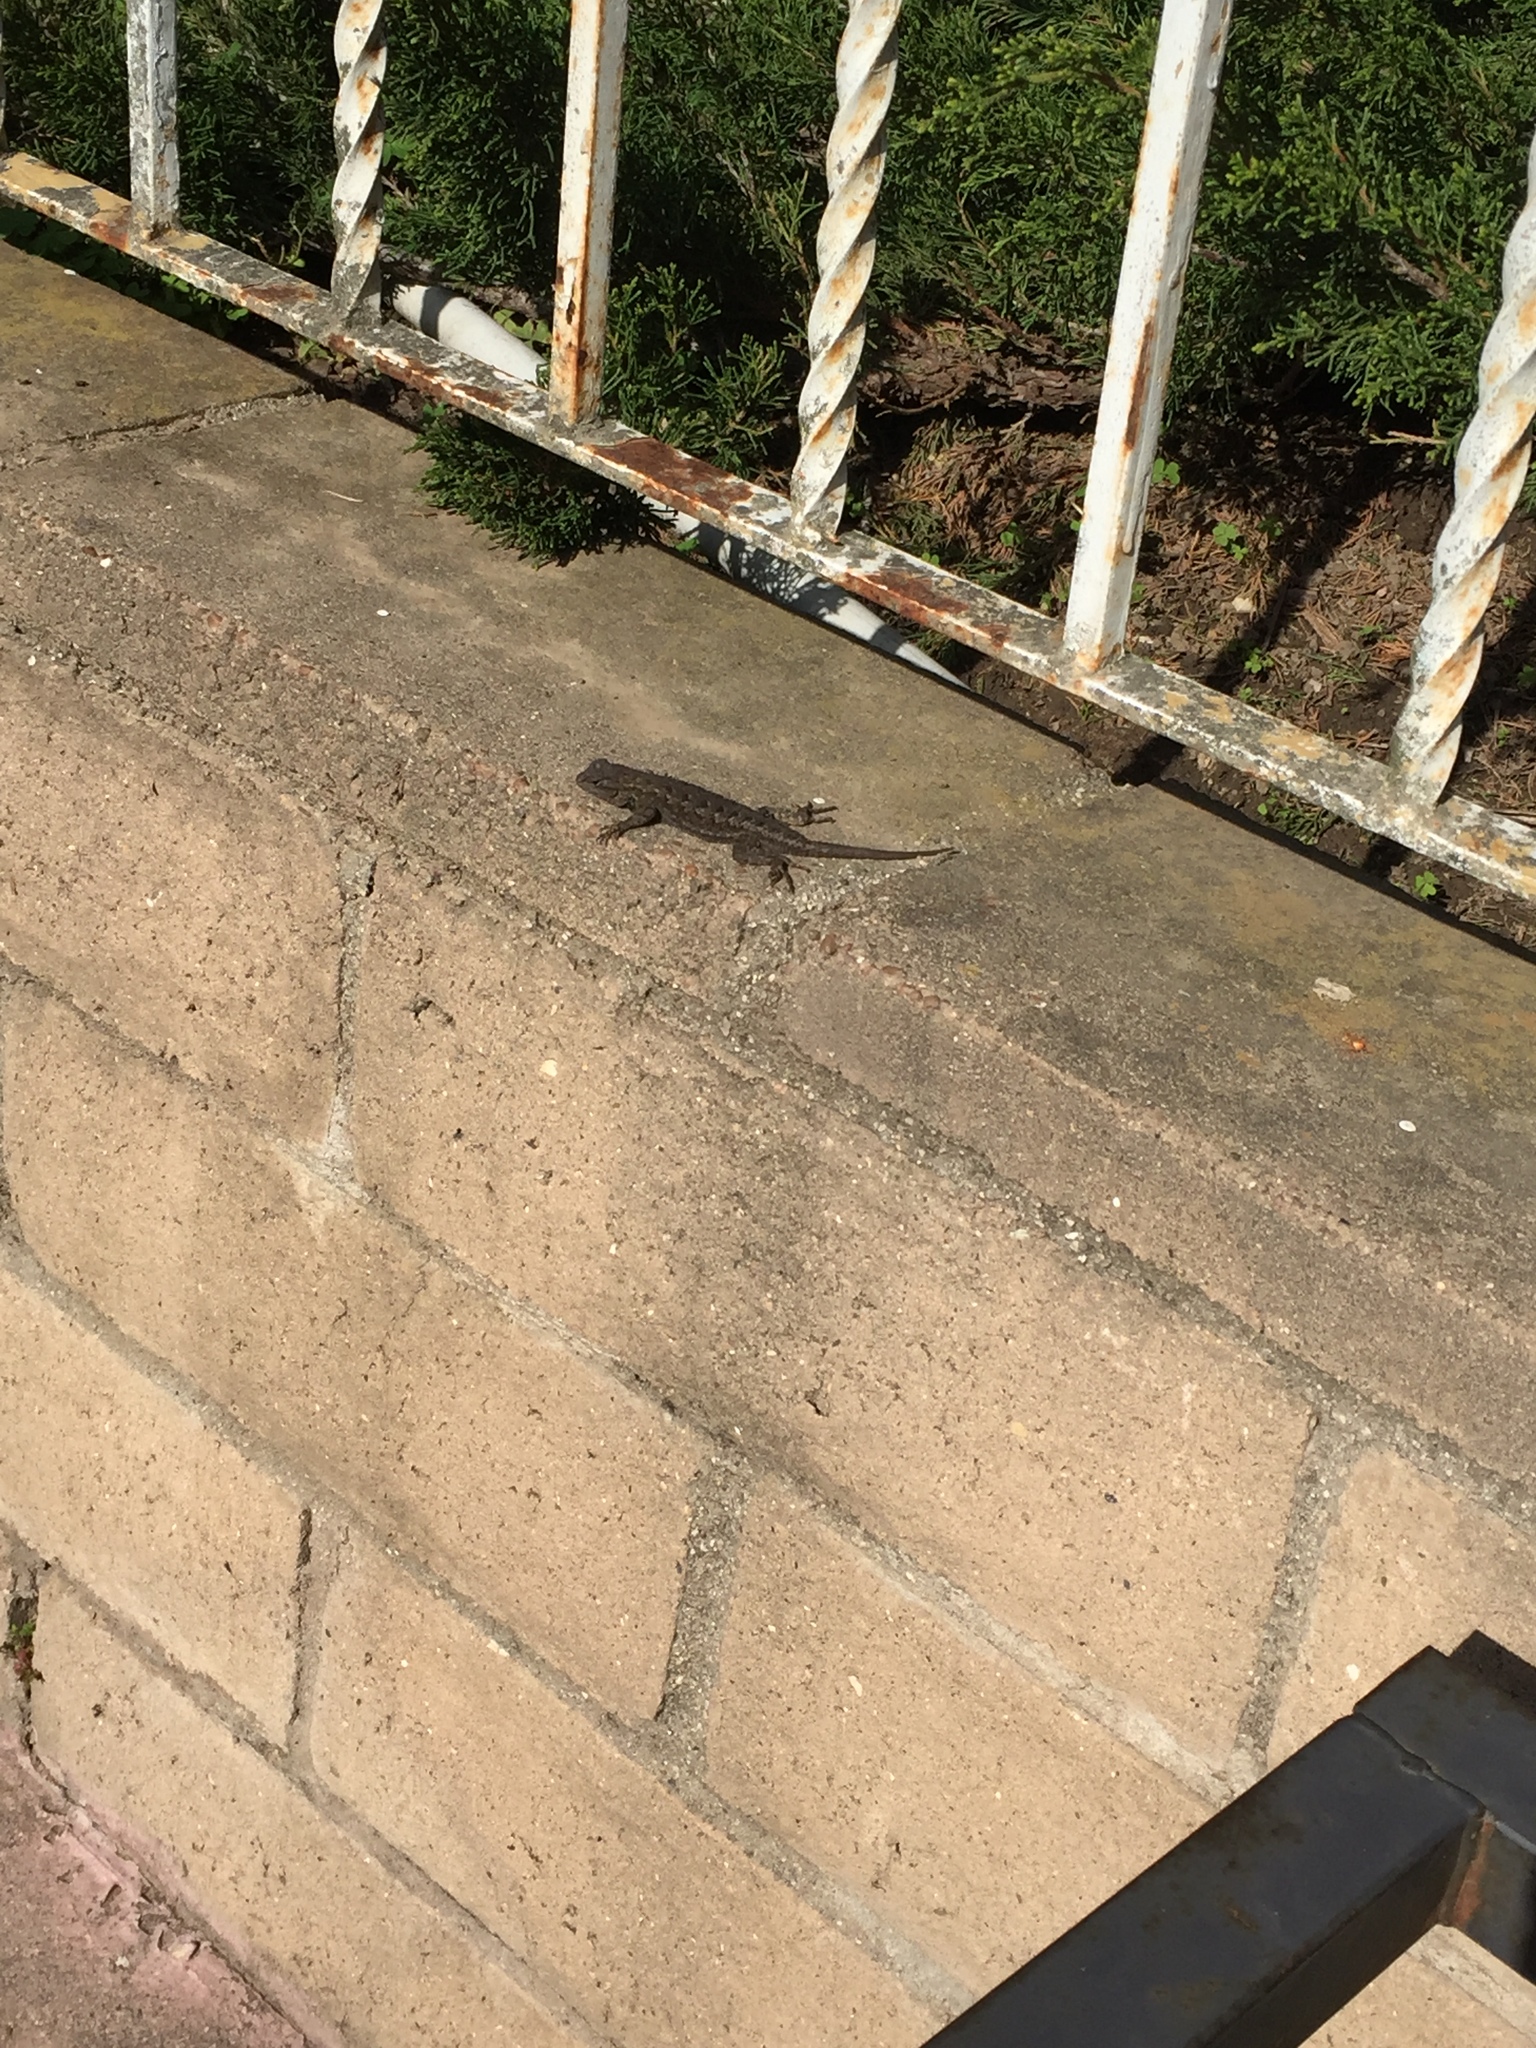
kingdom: Animalia
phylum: Chordata
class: Squamata
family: Phrynosomatidae
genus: Sceloporus
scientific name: Sceloporus occidentalis
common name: Western fence lizard
